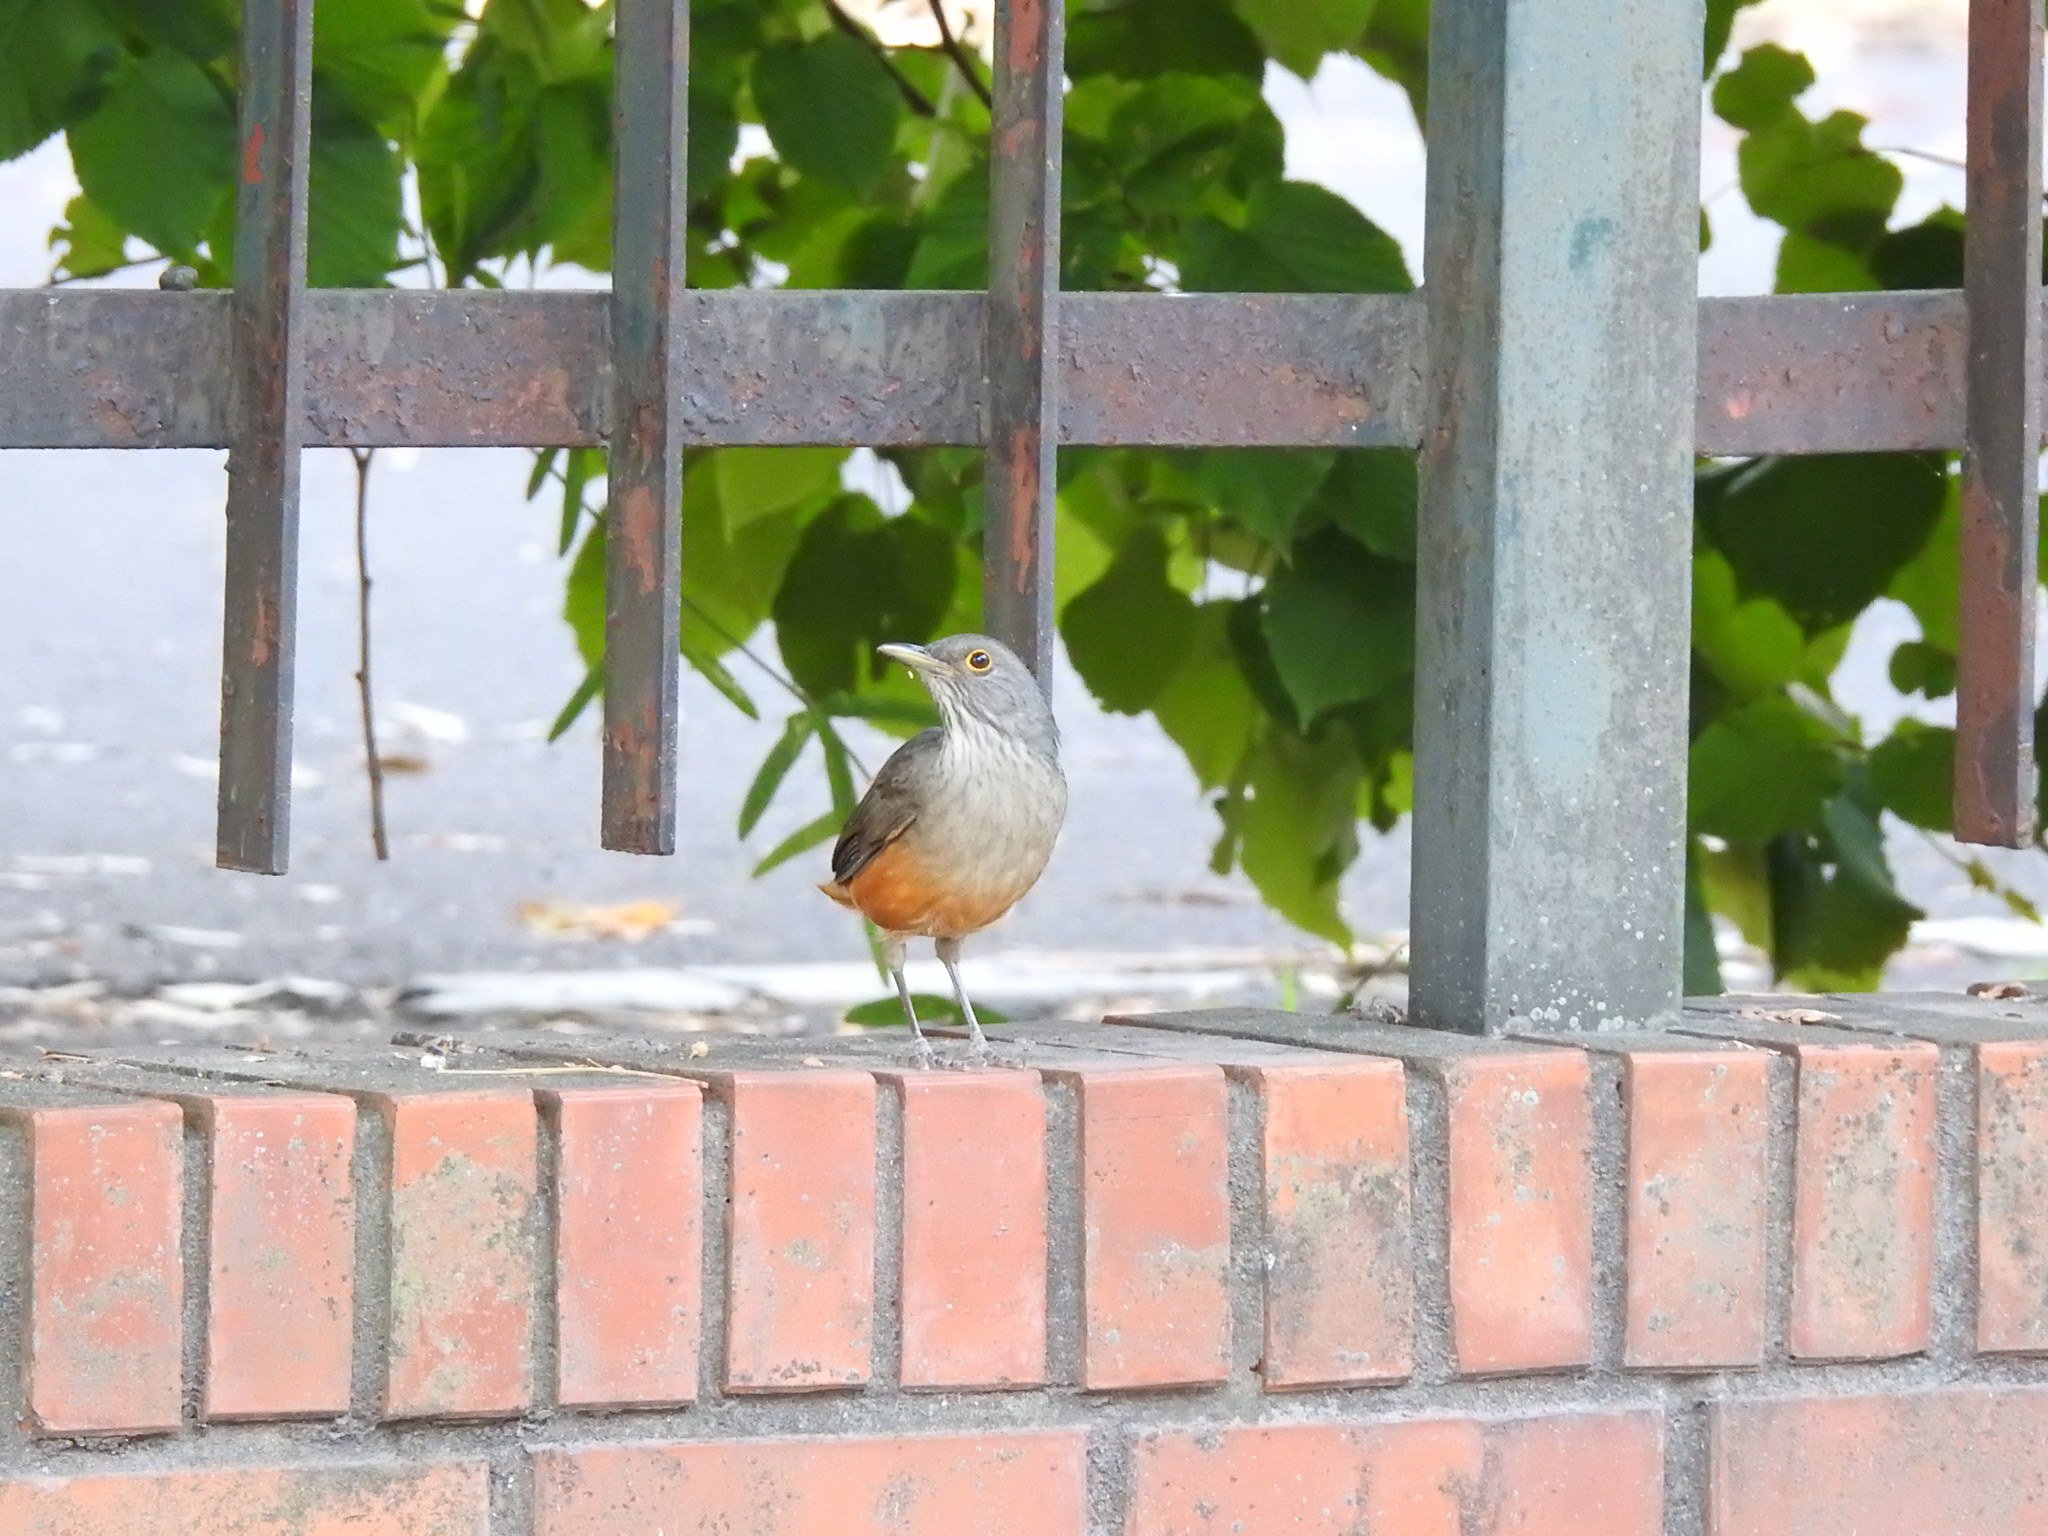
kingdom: Animalia
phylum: Chordata
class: Aves
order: Passeriformes
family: Turdidae
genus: Turdus
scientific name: Turdus rufiventris
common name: Rufous-bellied thrush
